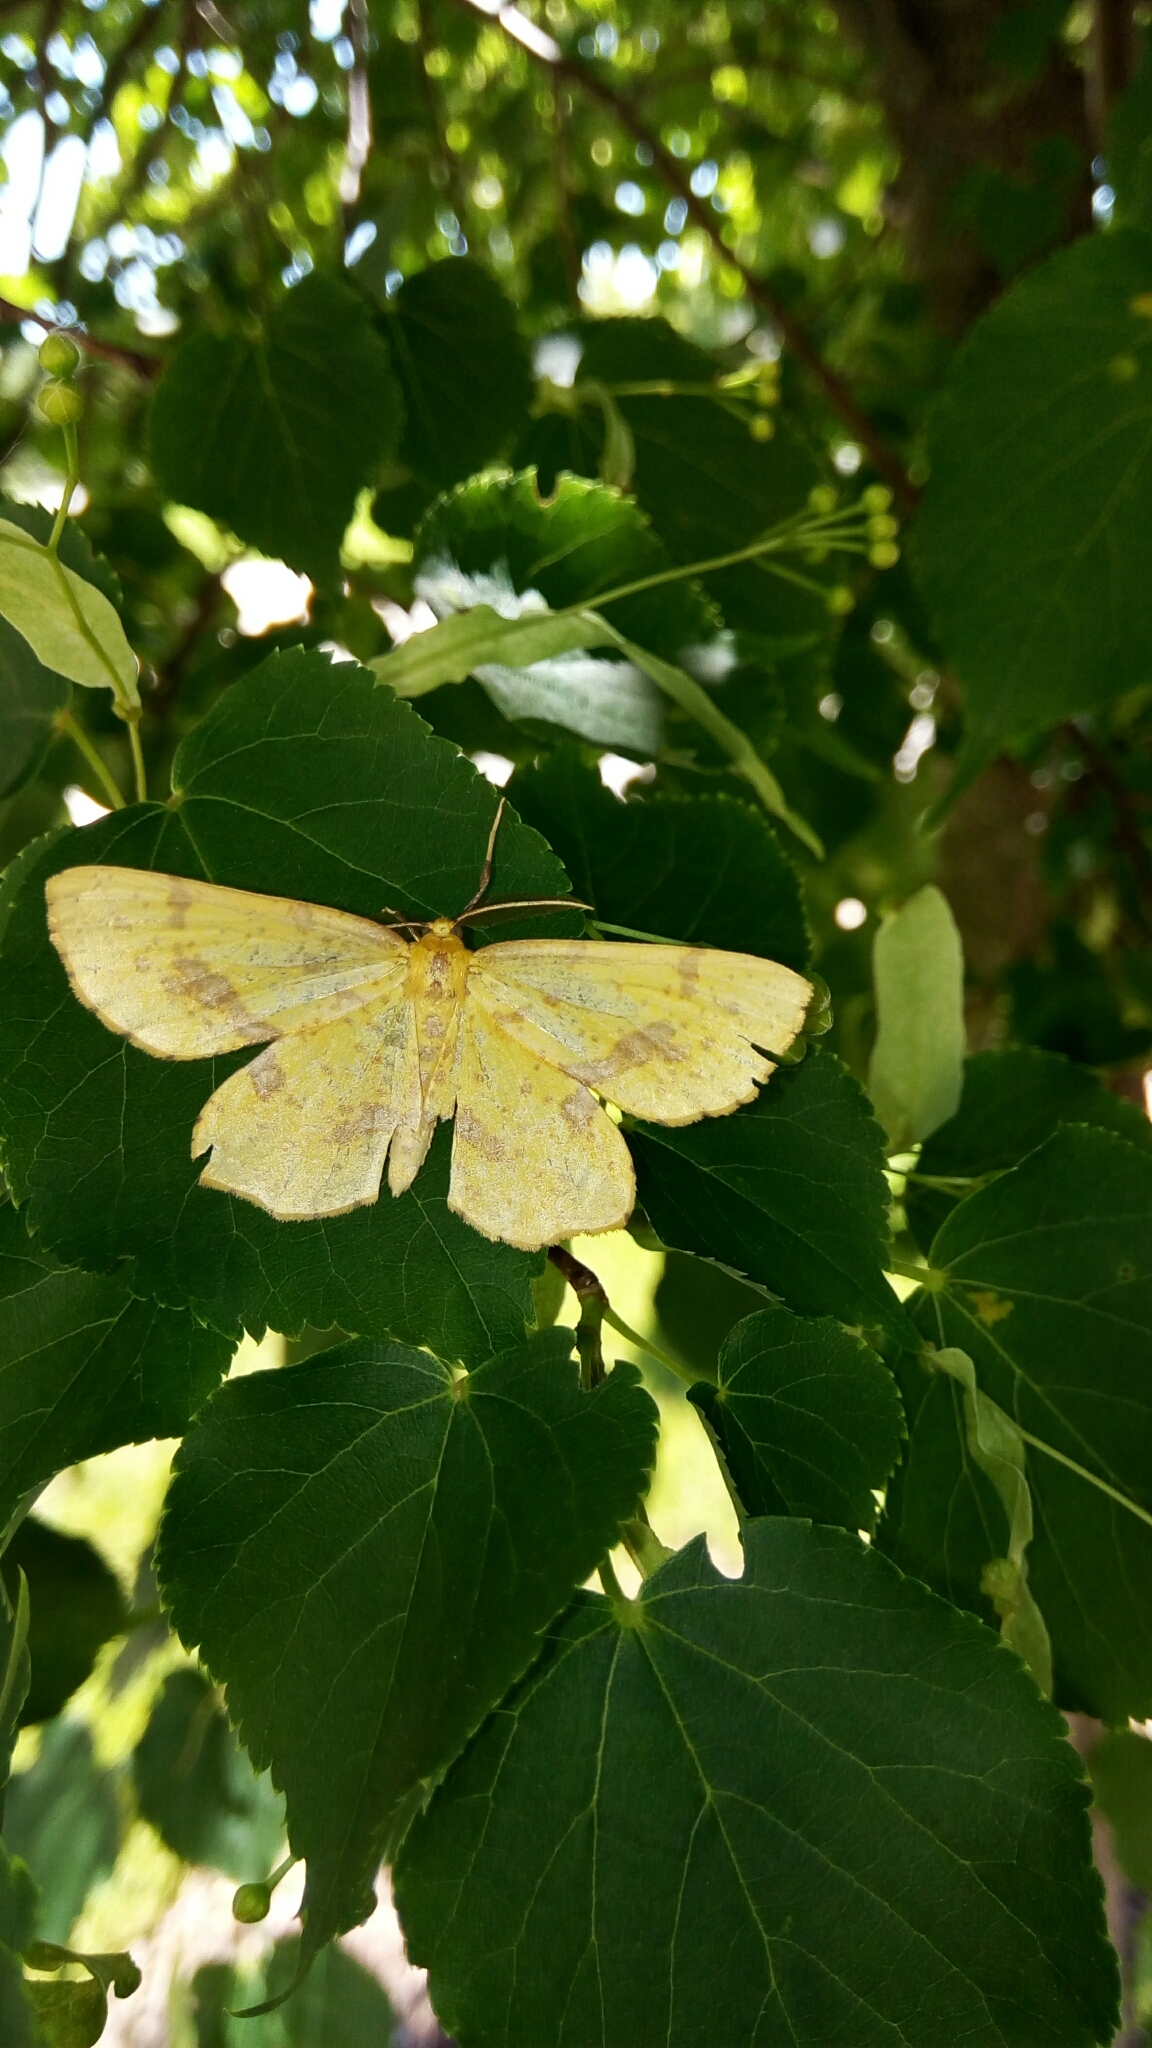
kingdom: Animalia
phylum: Arthropoda
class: Insecta
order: Lepidoptera
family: Geometridae
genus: Xanthotype
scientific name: Xanthotype
